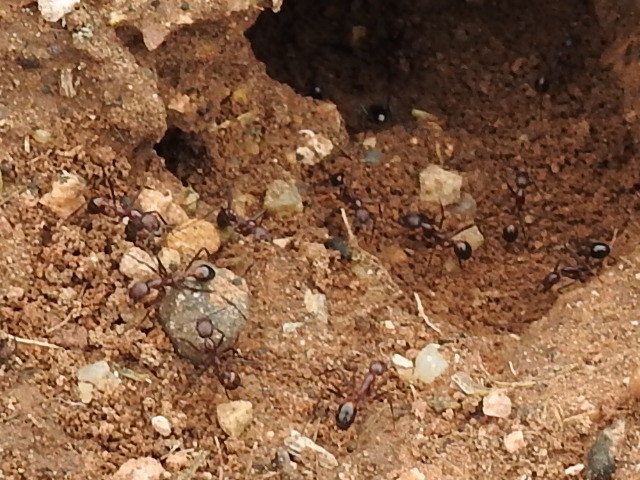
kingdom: Animalia
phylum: Arthropoda
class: Insecta
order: Hymenoptera
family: Formicidae
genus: Novomessor
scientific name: Novomessor cockerelli
